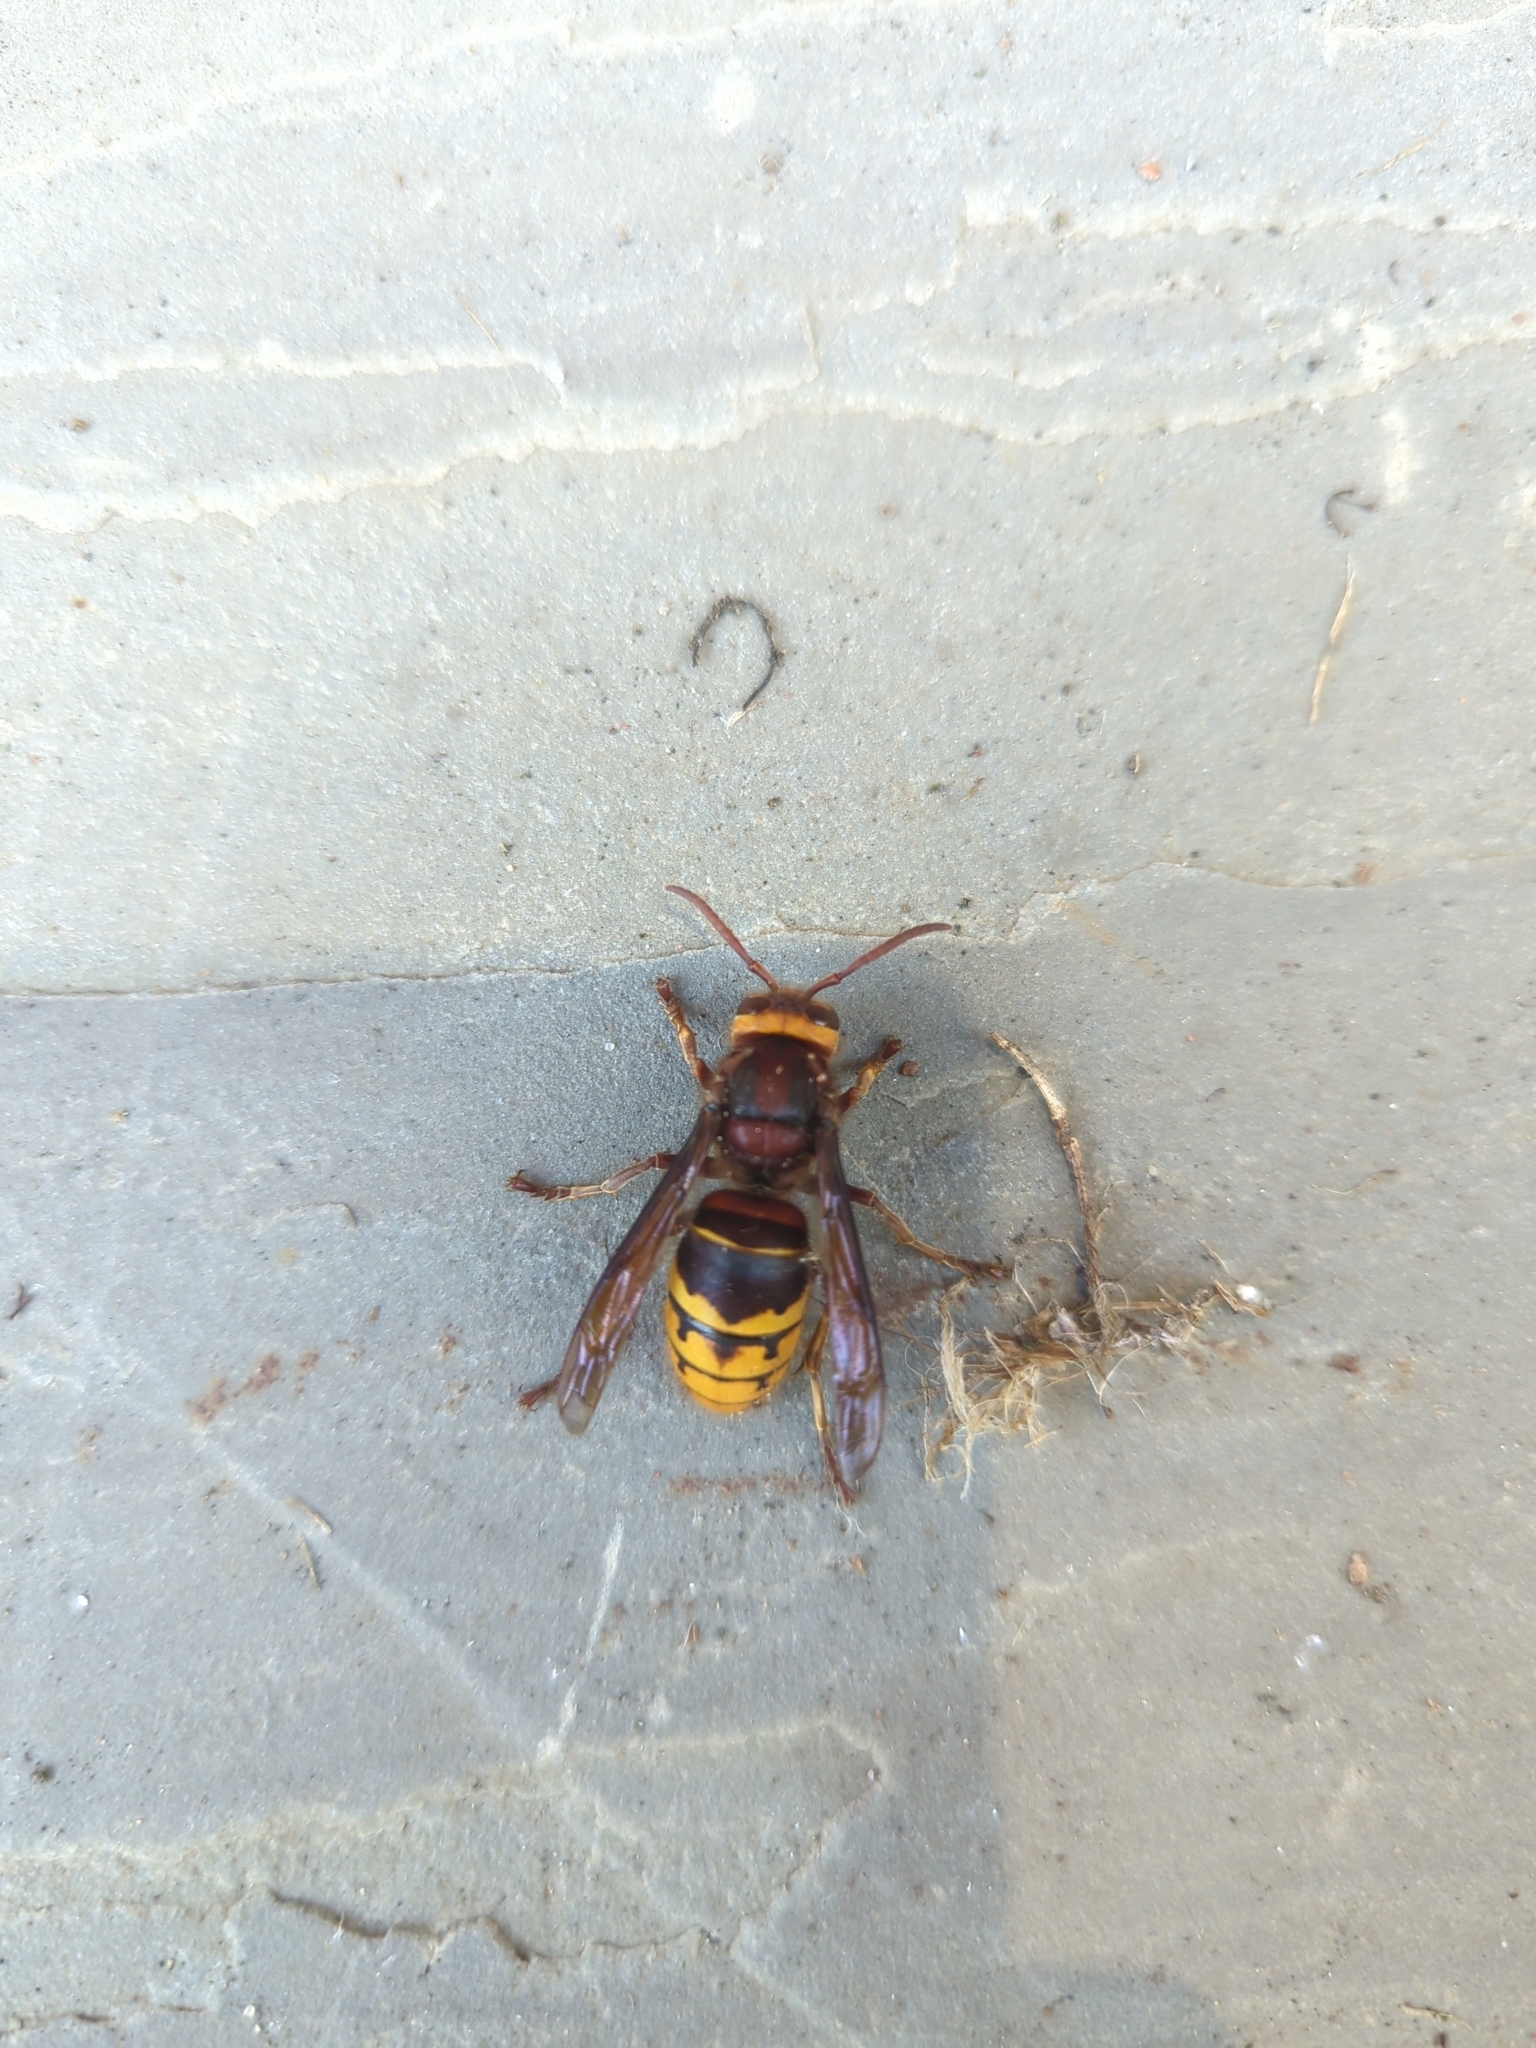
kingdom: Animalia
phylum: Arthropoda
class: Insecta
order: Hymenoptera
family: Vespidae
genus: Vespa
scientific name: Vespa crabro
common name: Hornet
